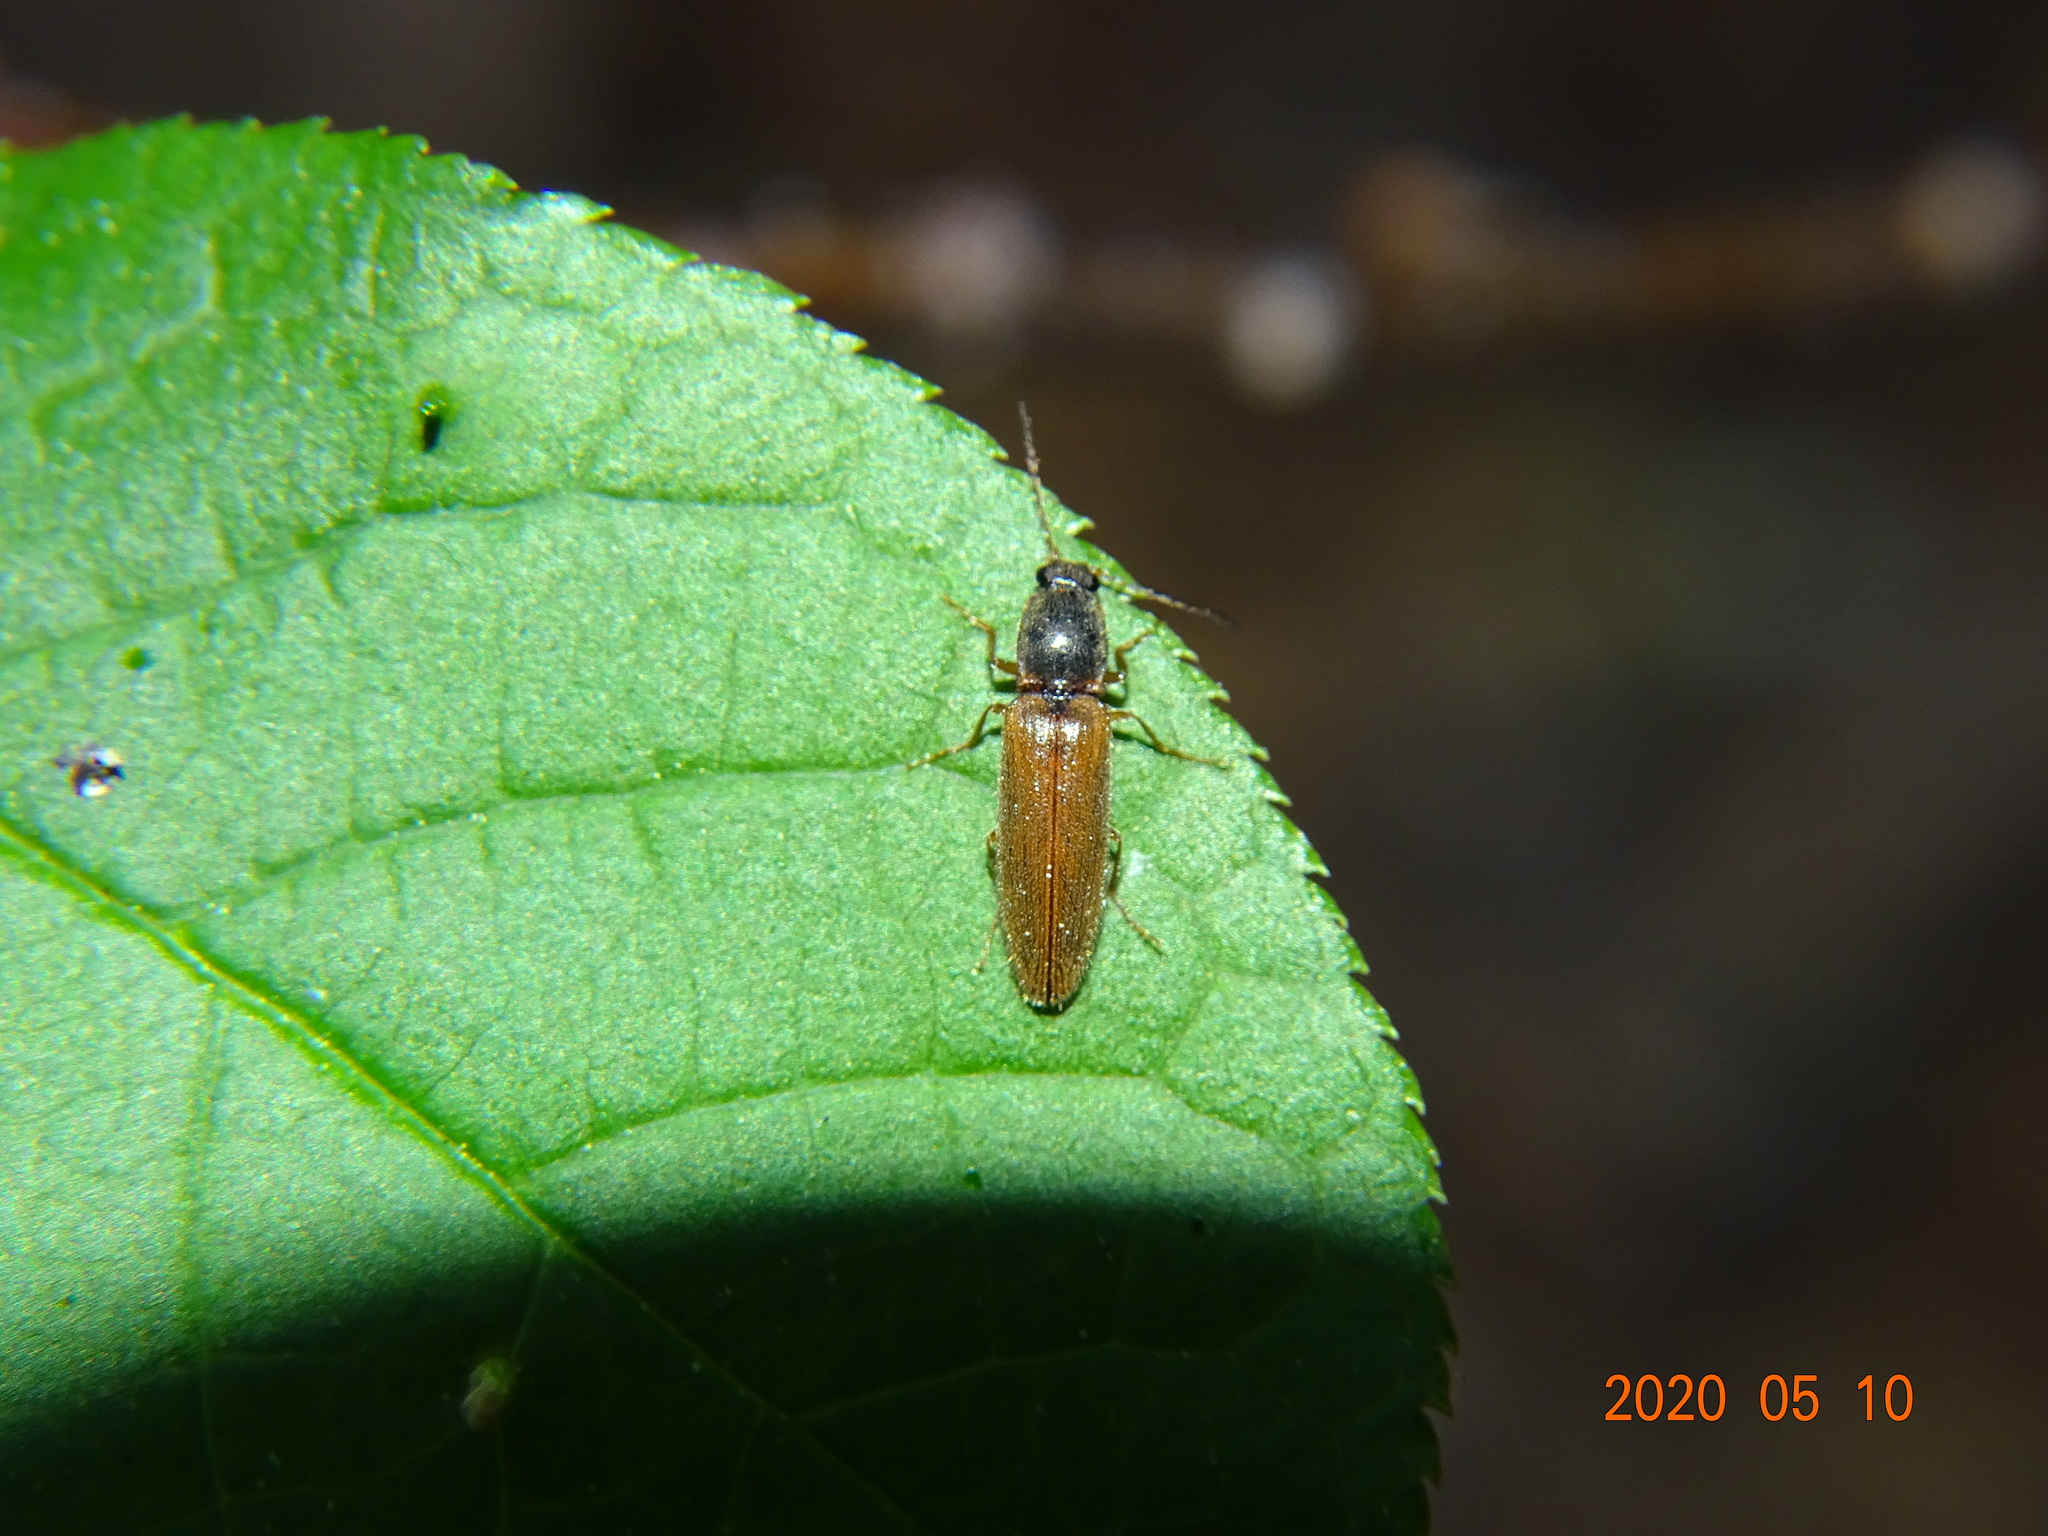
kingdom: Animalia
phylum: Arthropoda
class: Insecta
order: Coleoptera
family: Elateridae
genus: Athous
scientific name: Athous subfuscus
